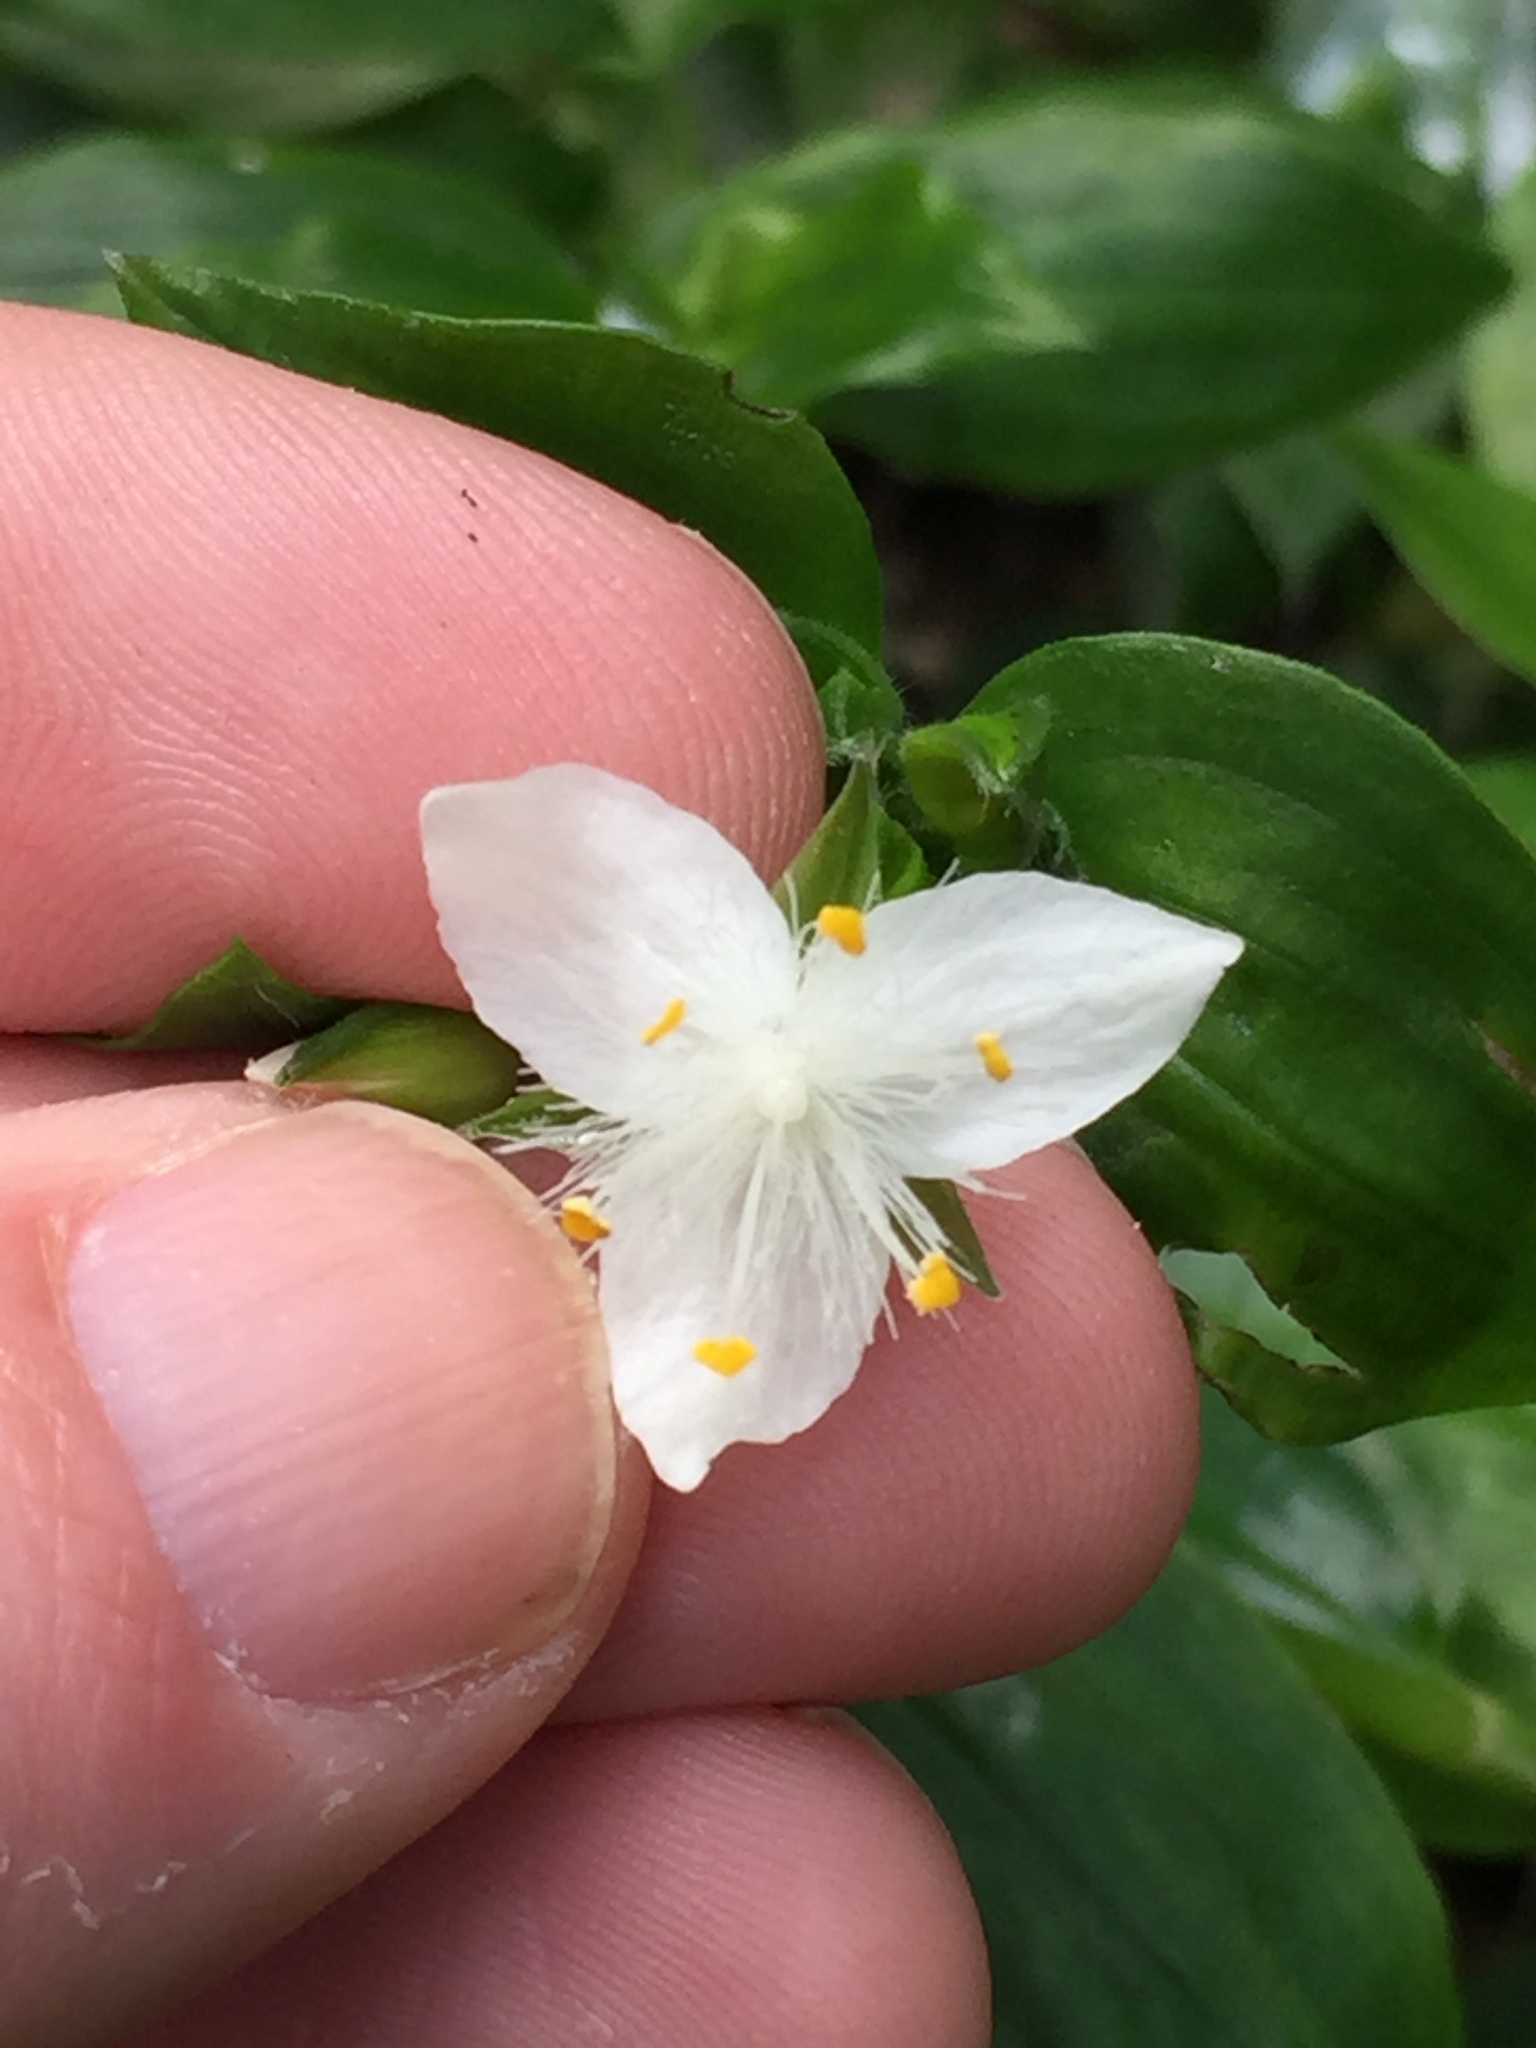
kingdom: Plantae
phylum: Tracheophyta
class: Liliopsida
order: Commelinales
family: Commelinaceae
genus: Tradescantia
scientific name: Tradescantia fluminensis
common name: Wandering-jew
